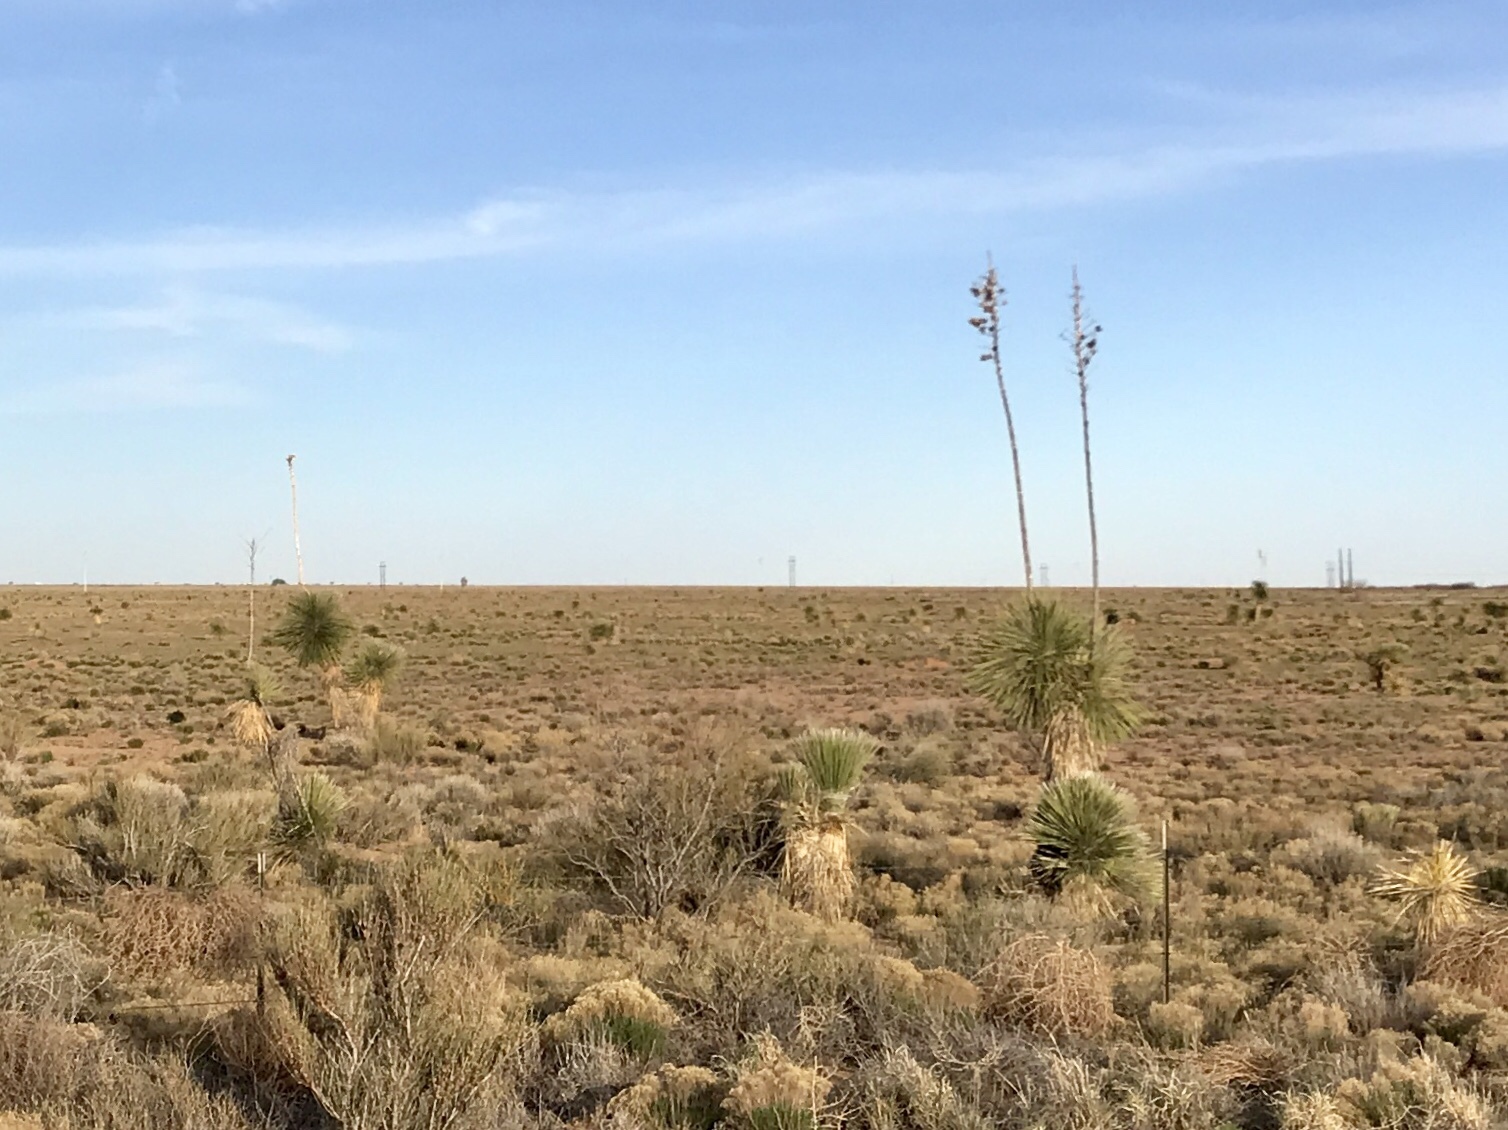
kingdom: Plantae
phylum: Tracheophyta
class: Liliopsida
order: Asparagales
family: Asparagaceae
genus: Yucca
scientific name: Yucca elata
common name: Palmella
